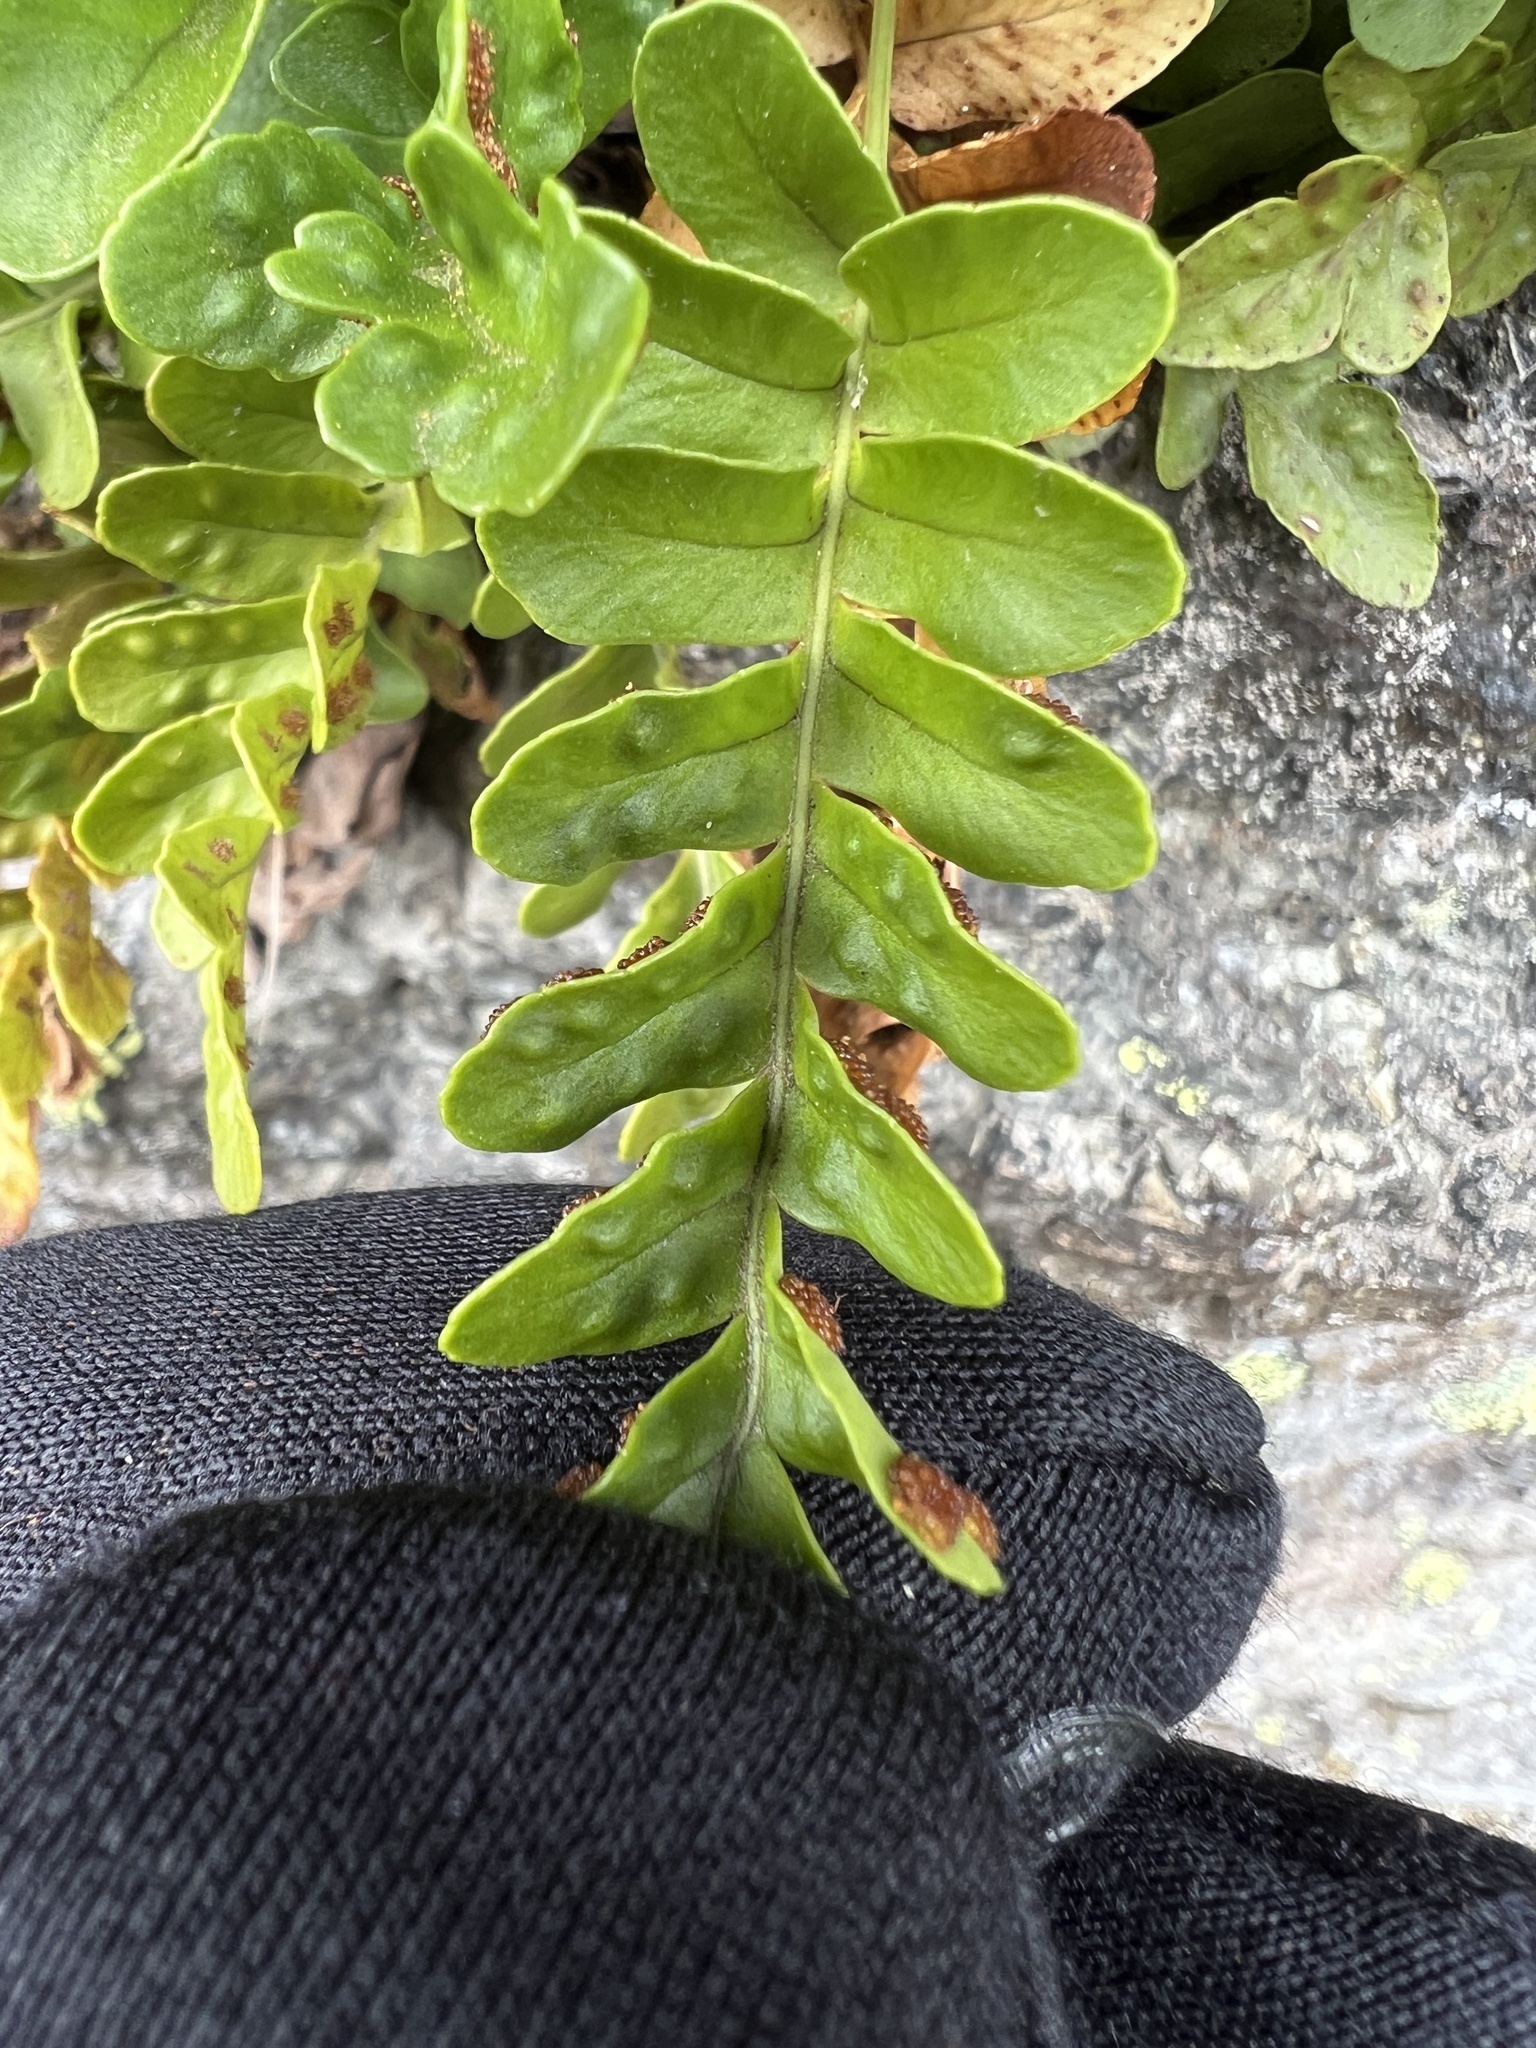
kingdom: Plantae
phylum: Tracheophyta
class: Polypodiopsida
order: Polypodiales
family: Polypodiaceae
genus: Polypodium
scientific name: Polypodium amorphum
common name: Pacific polypody
